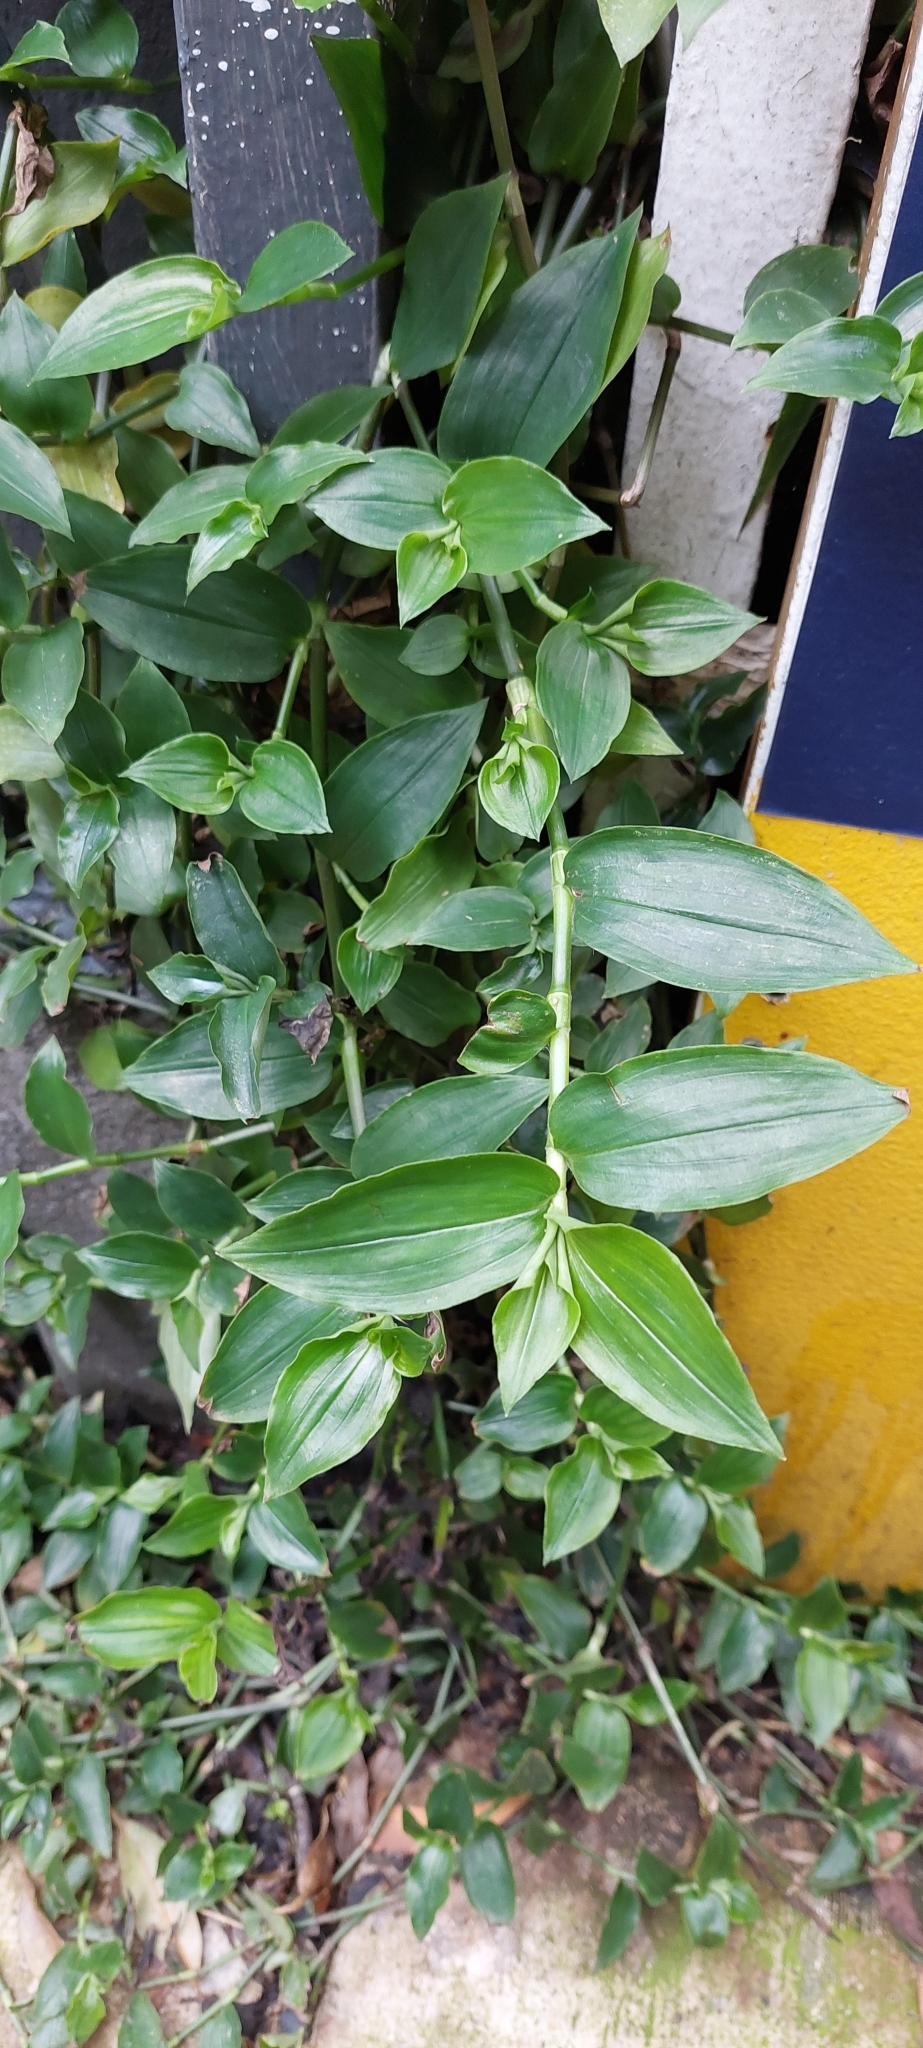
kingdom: Plantae
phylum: Tracheophyta
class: Liliopsida
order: Commelinales
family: Commelinaceae
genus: Tradescantia
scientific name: Tradescantia fluminensis
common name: Wandering-jew
